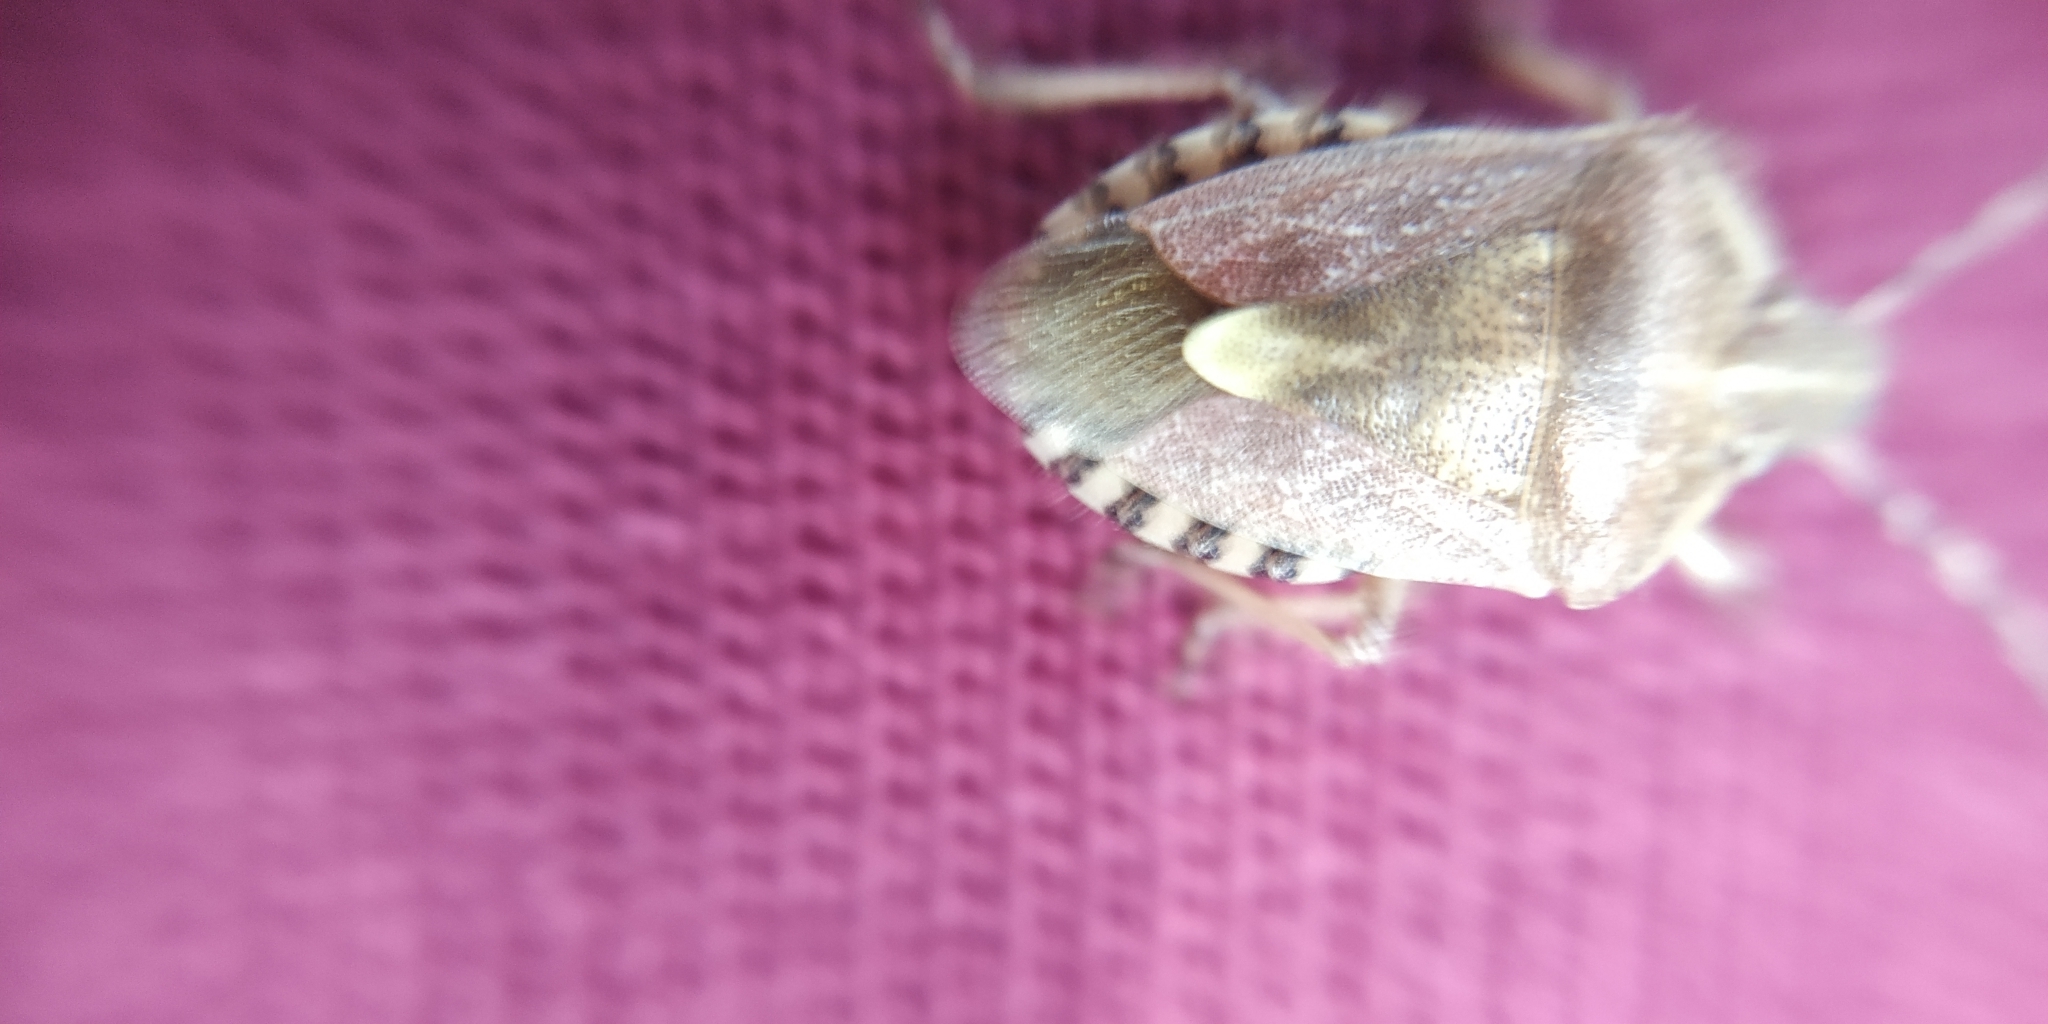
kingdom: Animalia
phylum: Arthropoda
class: Insecta
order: Hemiptera
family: Pentatomidae
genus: Dolycoris
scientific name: Dolycoris baccarum
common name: Sloe bug
